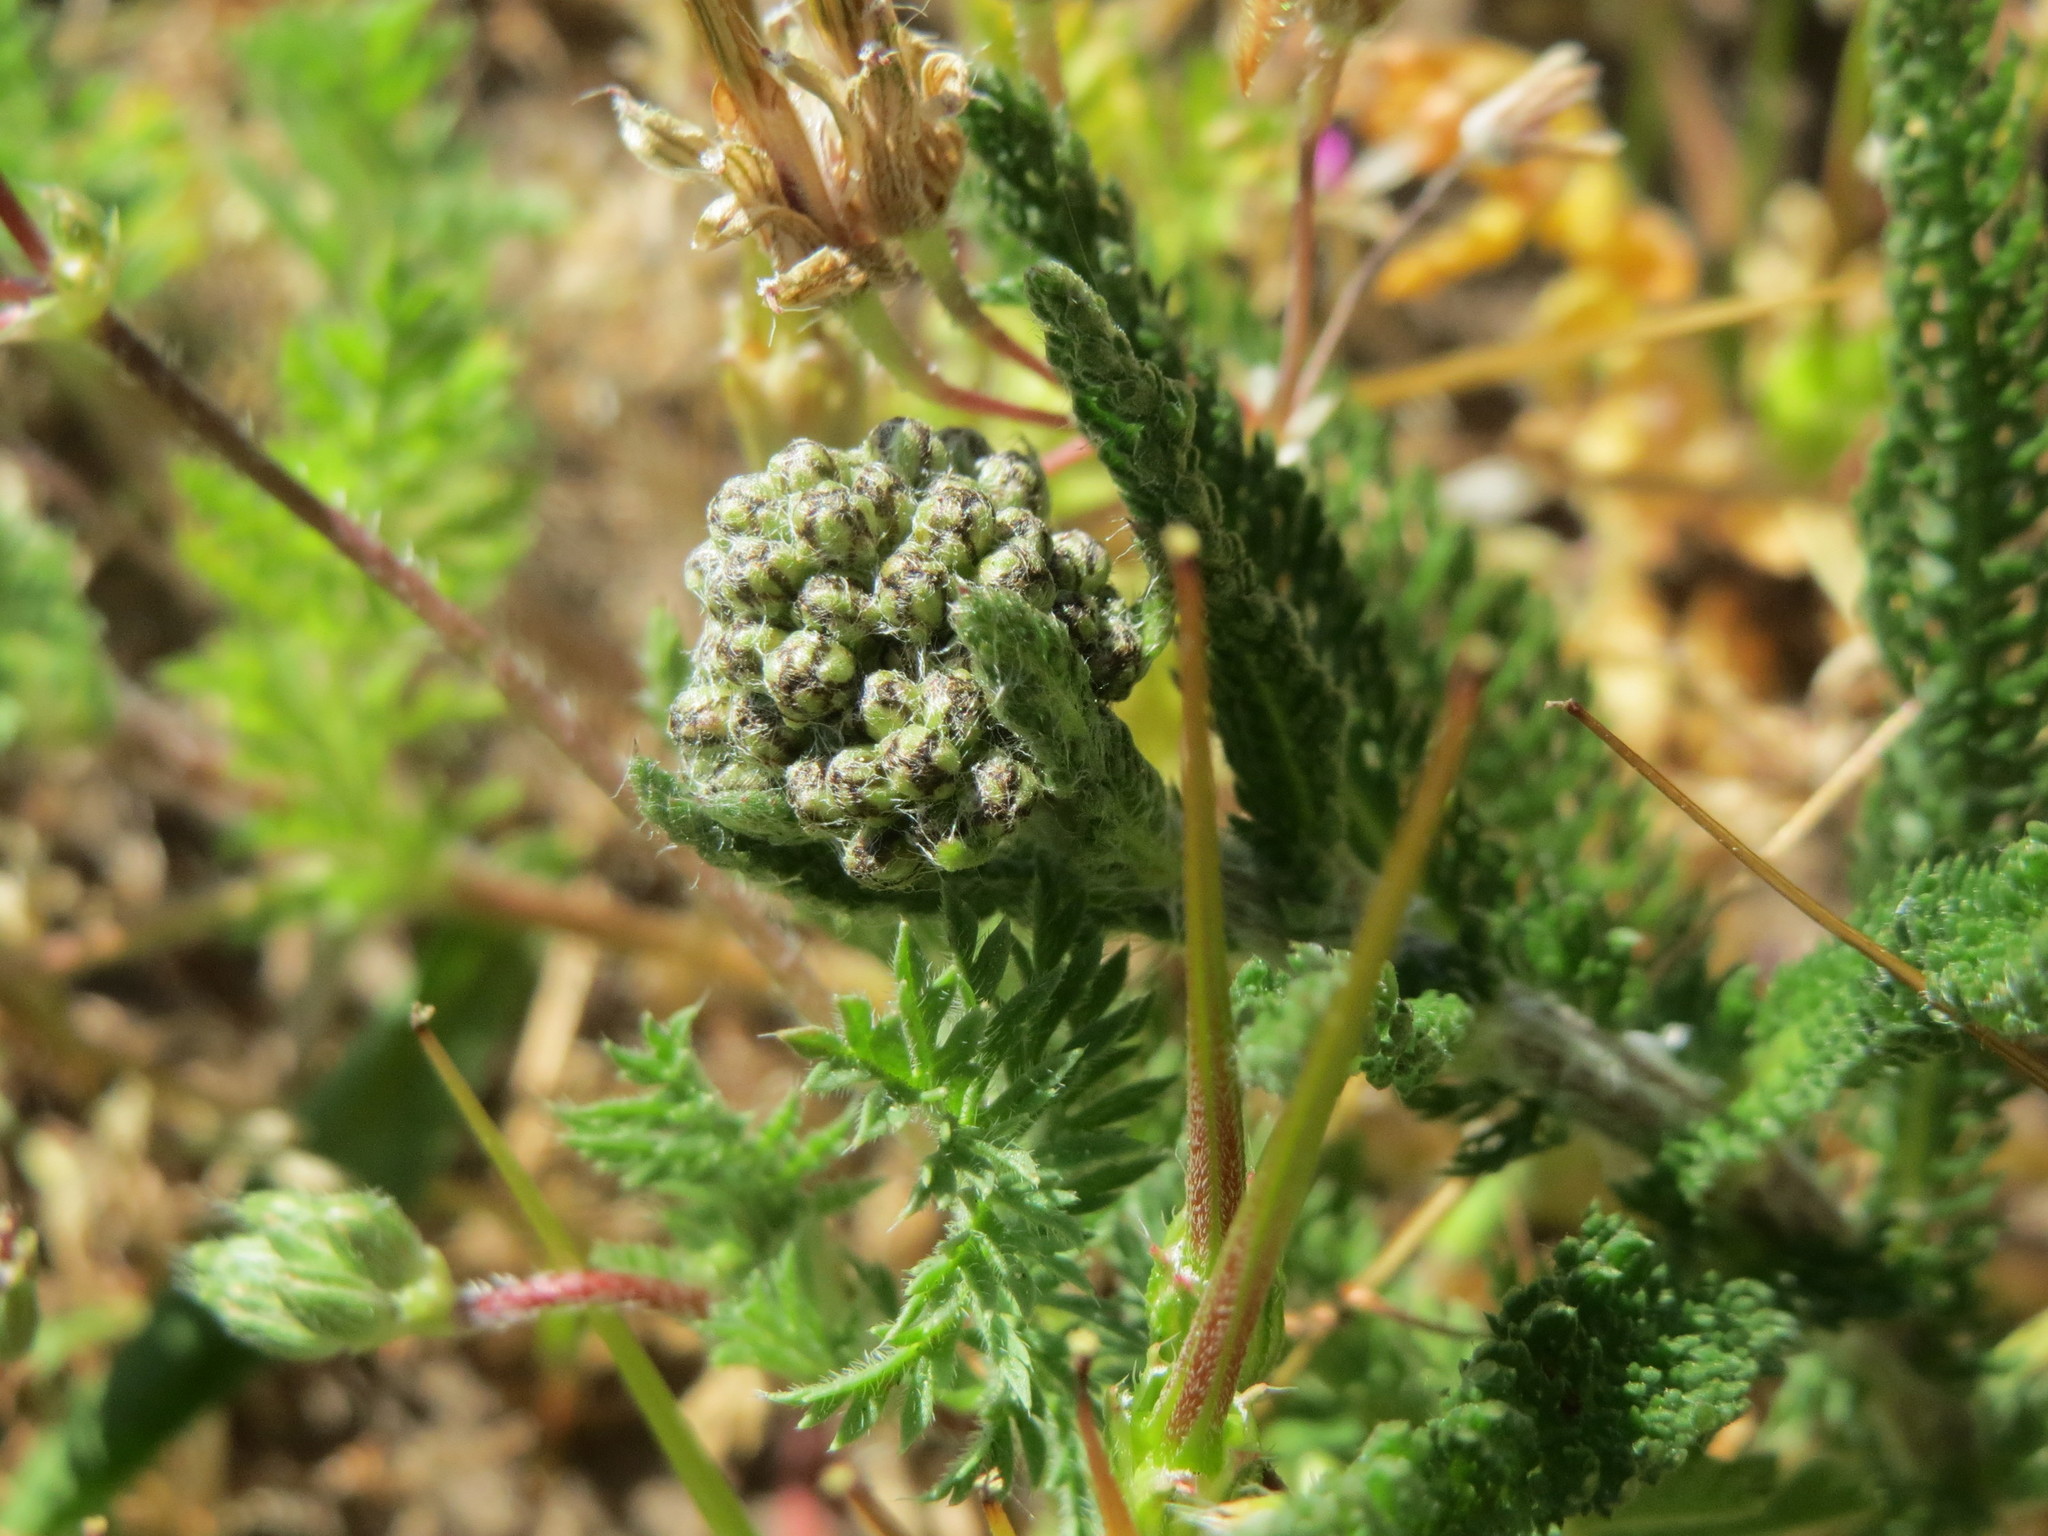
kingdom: Plantae
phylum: Tracheophyta
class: Magnoliopsida
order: Asterales
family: Asteraceae
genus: Achillea
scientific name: Achillea millefolium
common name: Yarrow
